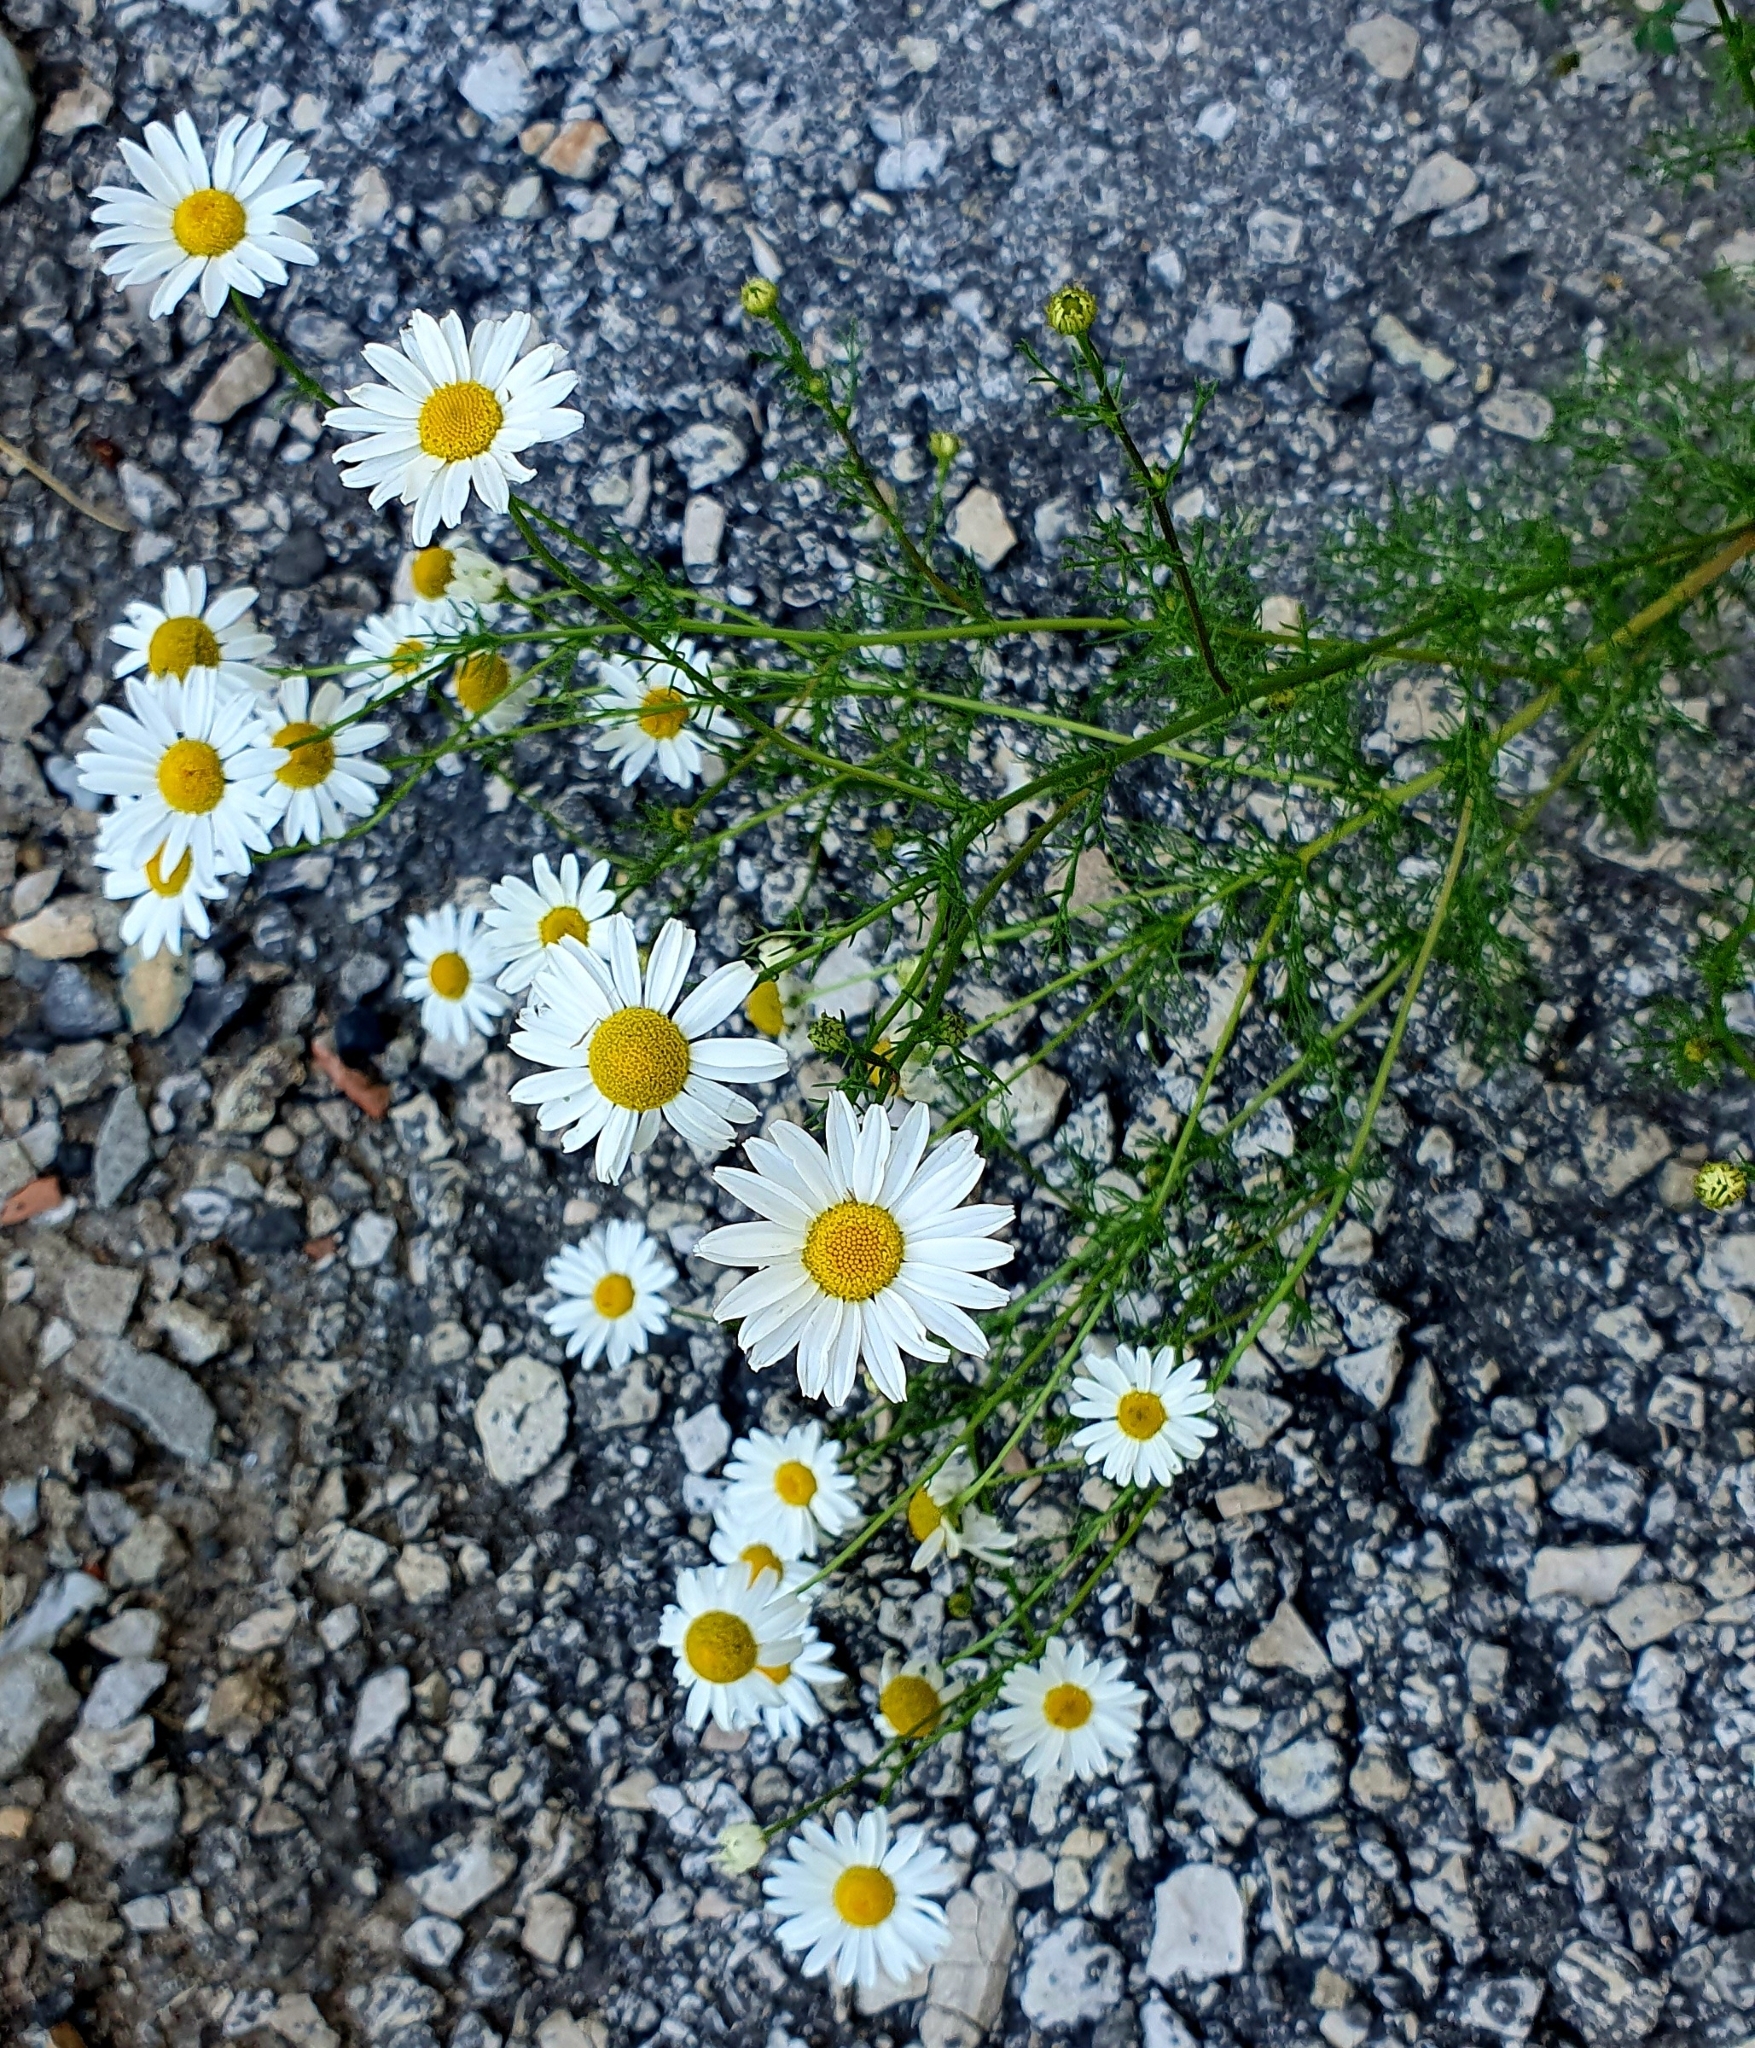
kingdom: Plantae
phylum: Tracheophyta
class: Magnoliopsida
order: Asterales
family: Asteraceae
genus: Tripleurospermum
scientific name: Tripleurospermum inodorum
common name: Scentless mayweed
